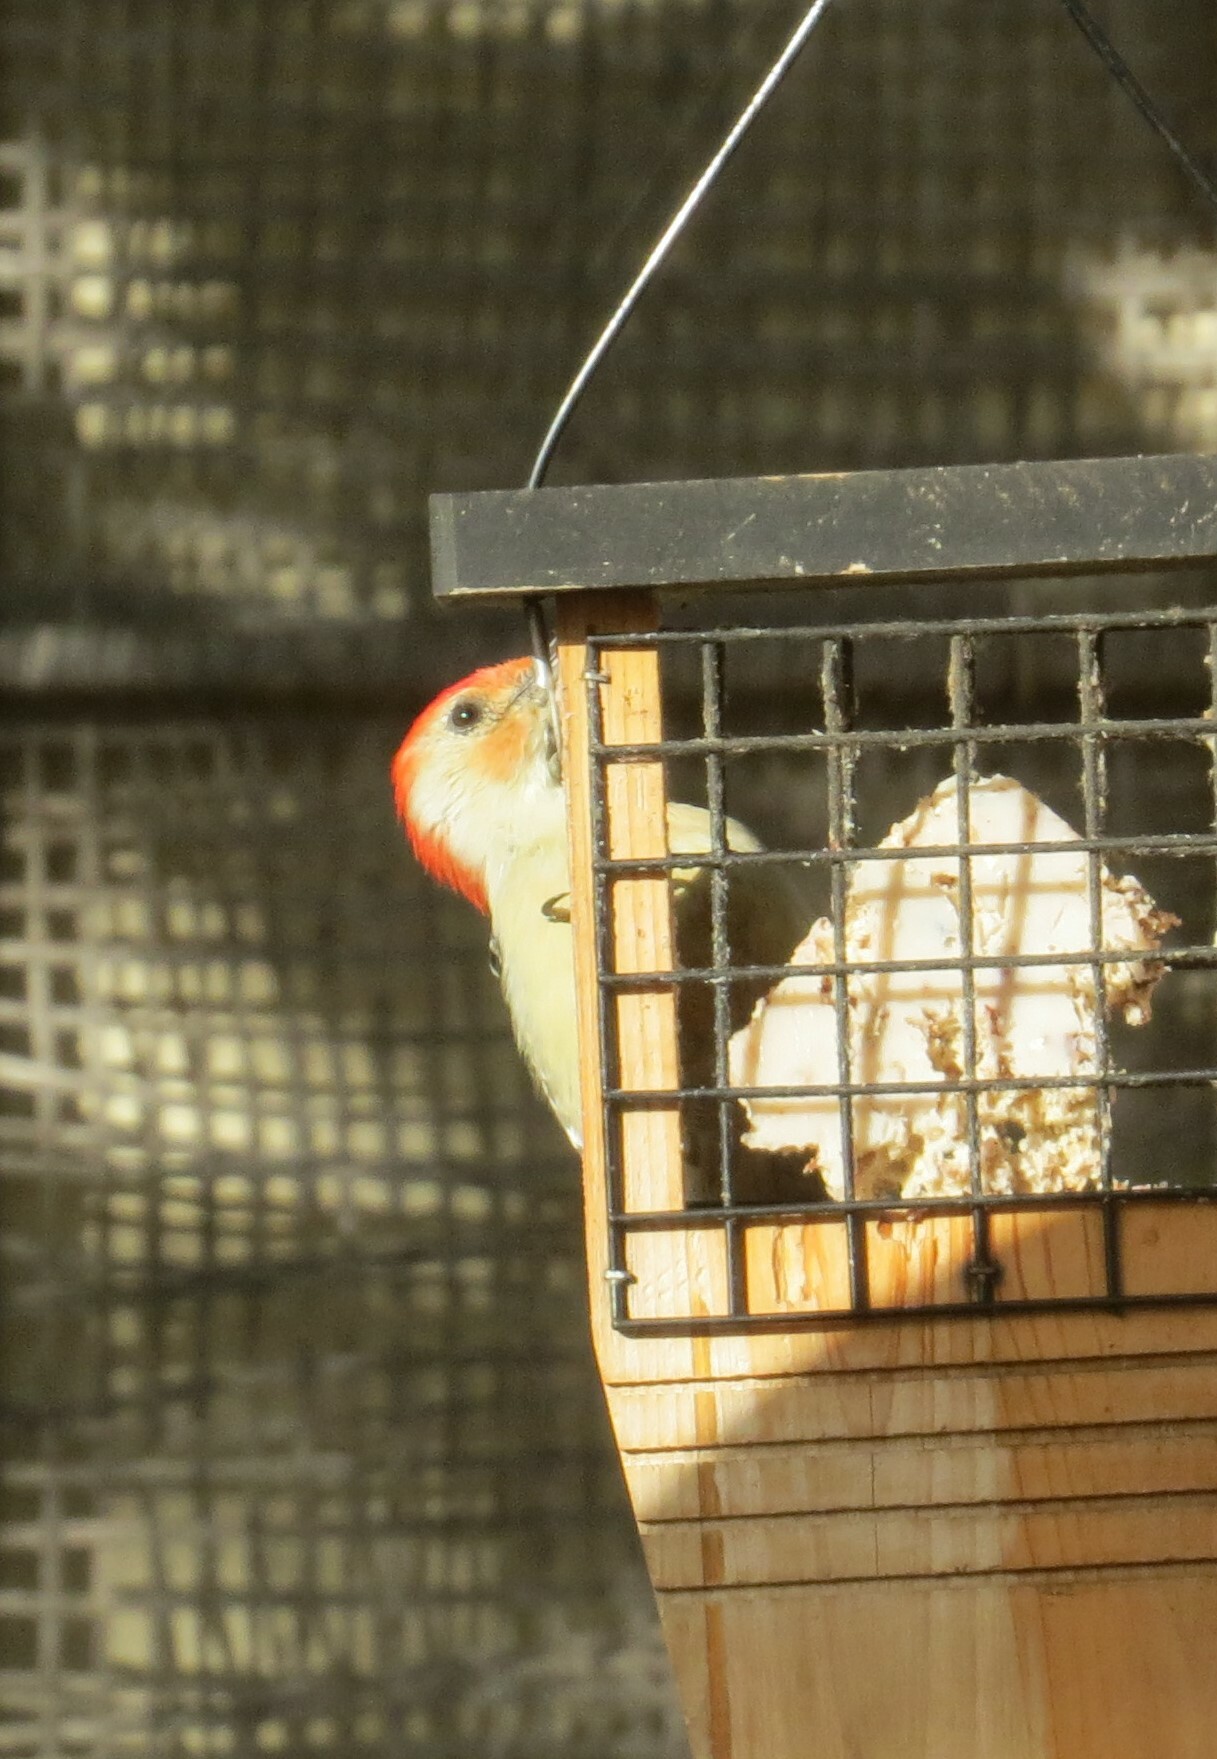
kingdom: Animalia
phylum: Chordata
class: Aves
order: Piciformes
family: Picidae
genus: Melanerpes
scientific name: Melanerpes carolinus
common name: Red-bellied woodpecker
